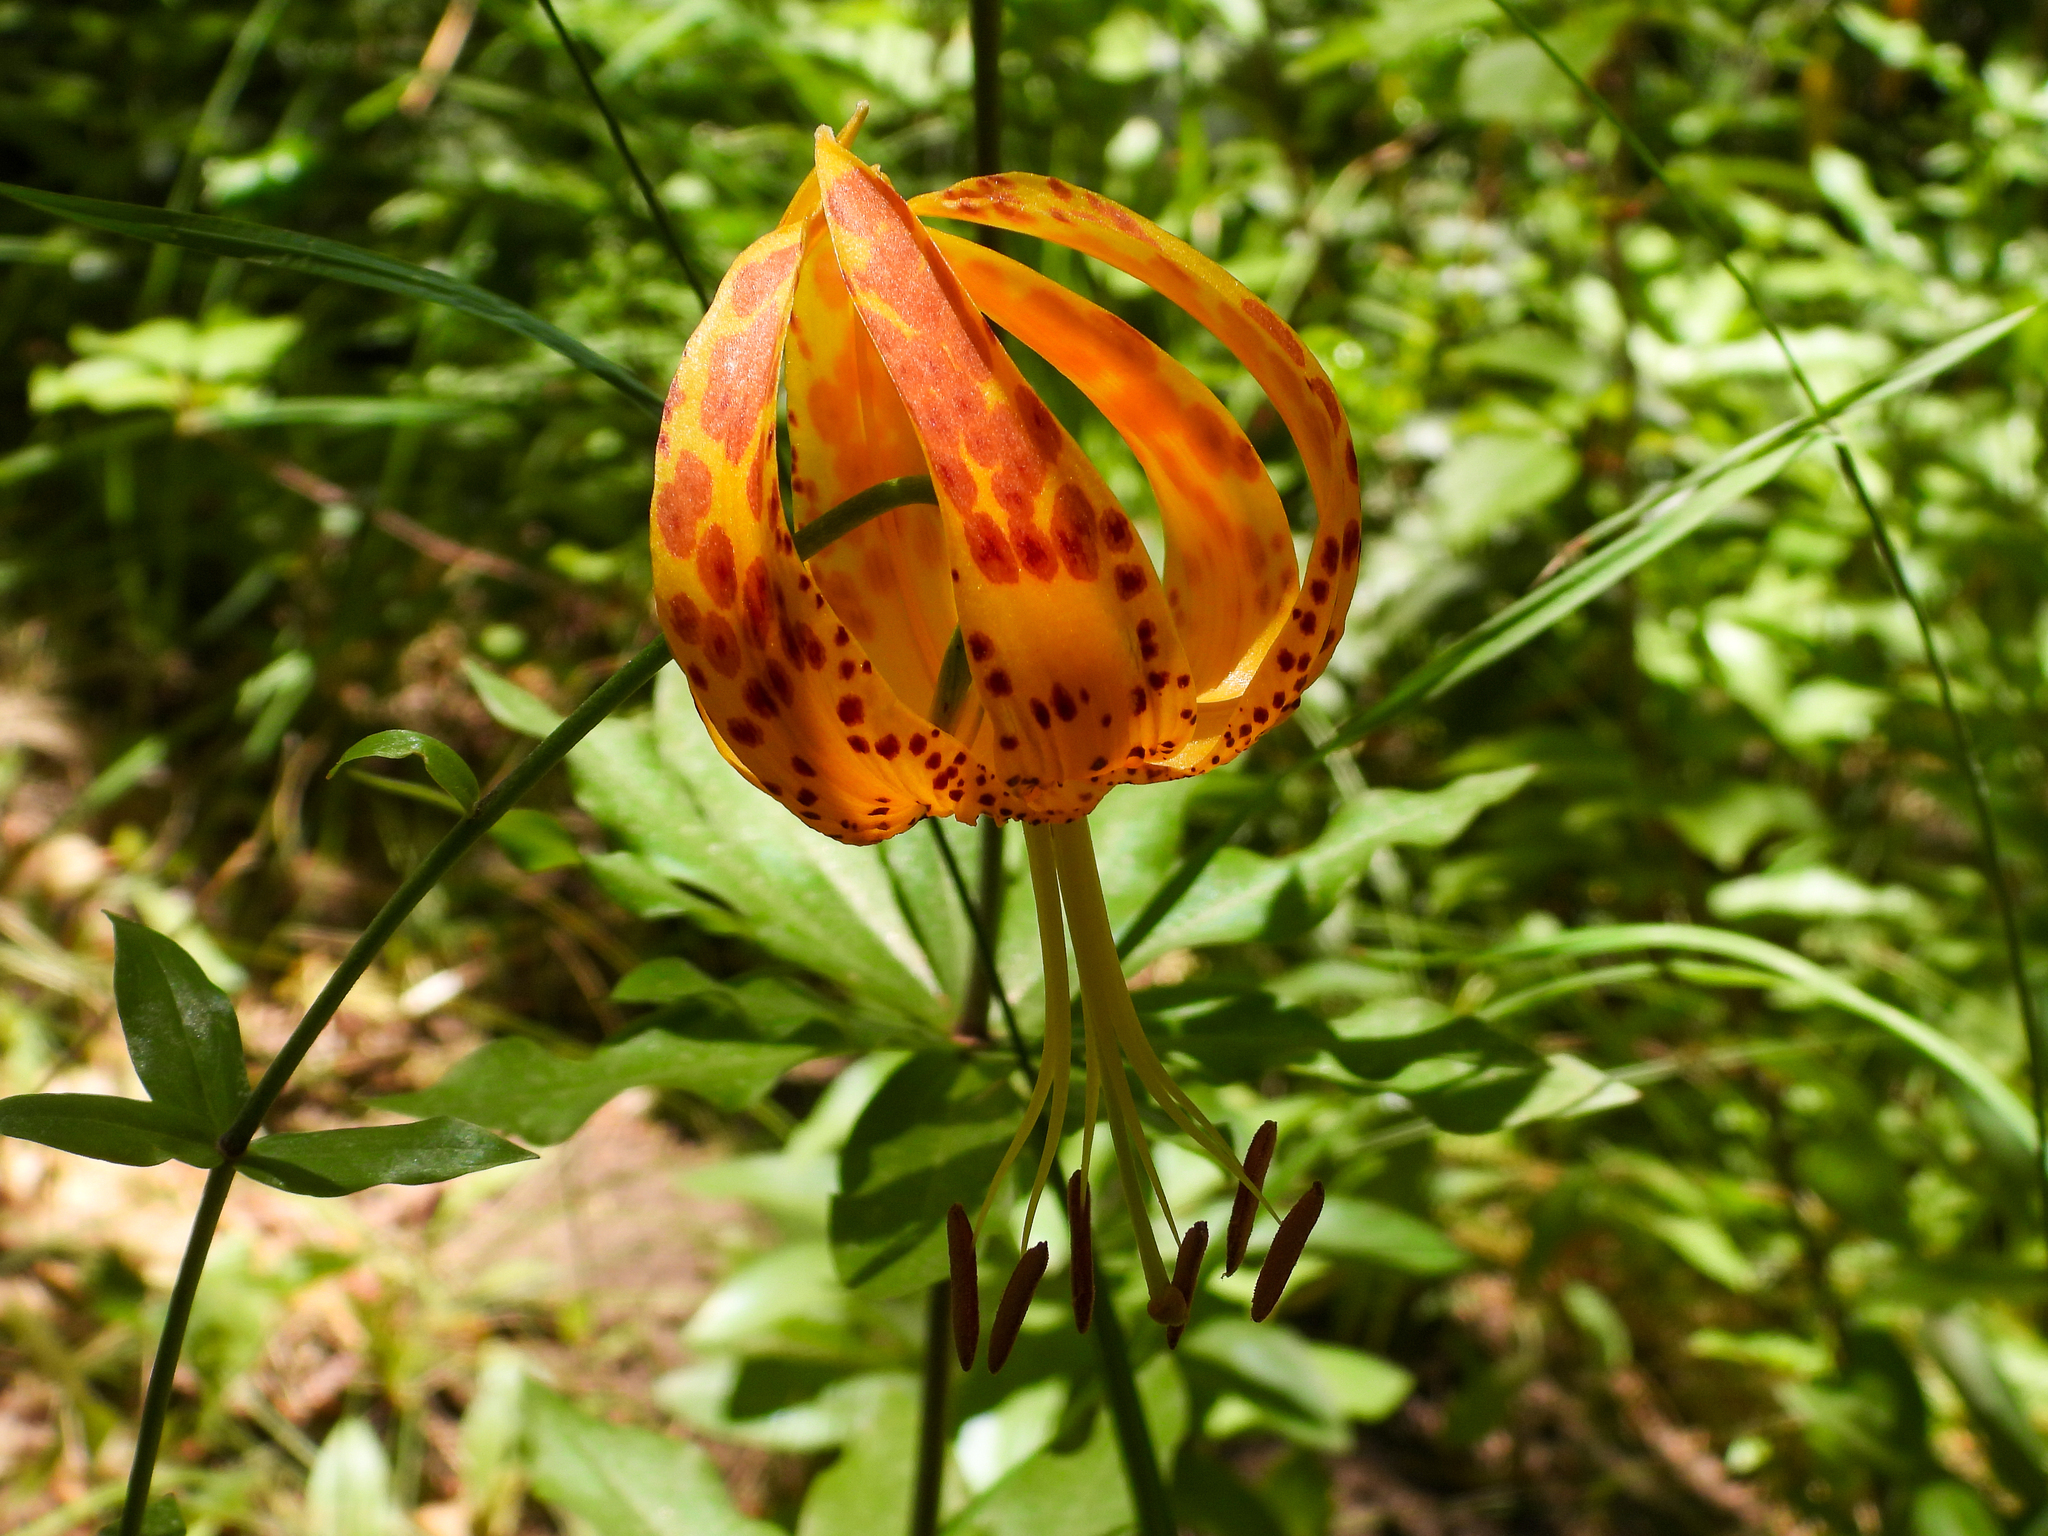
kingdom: Plantae
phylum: Tracheophyta
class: Liliopsida
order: Liliales
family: Liliaceae
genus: Lilium
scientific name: Lilium humboldtii
